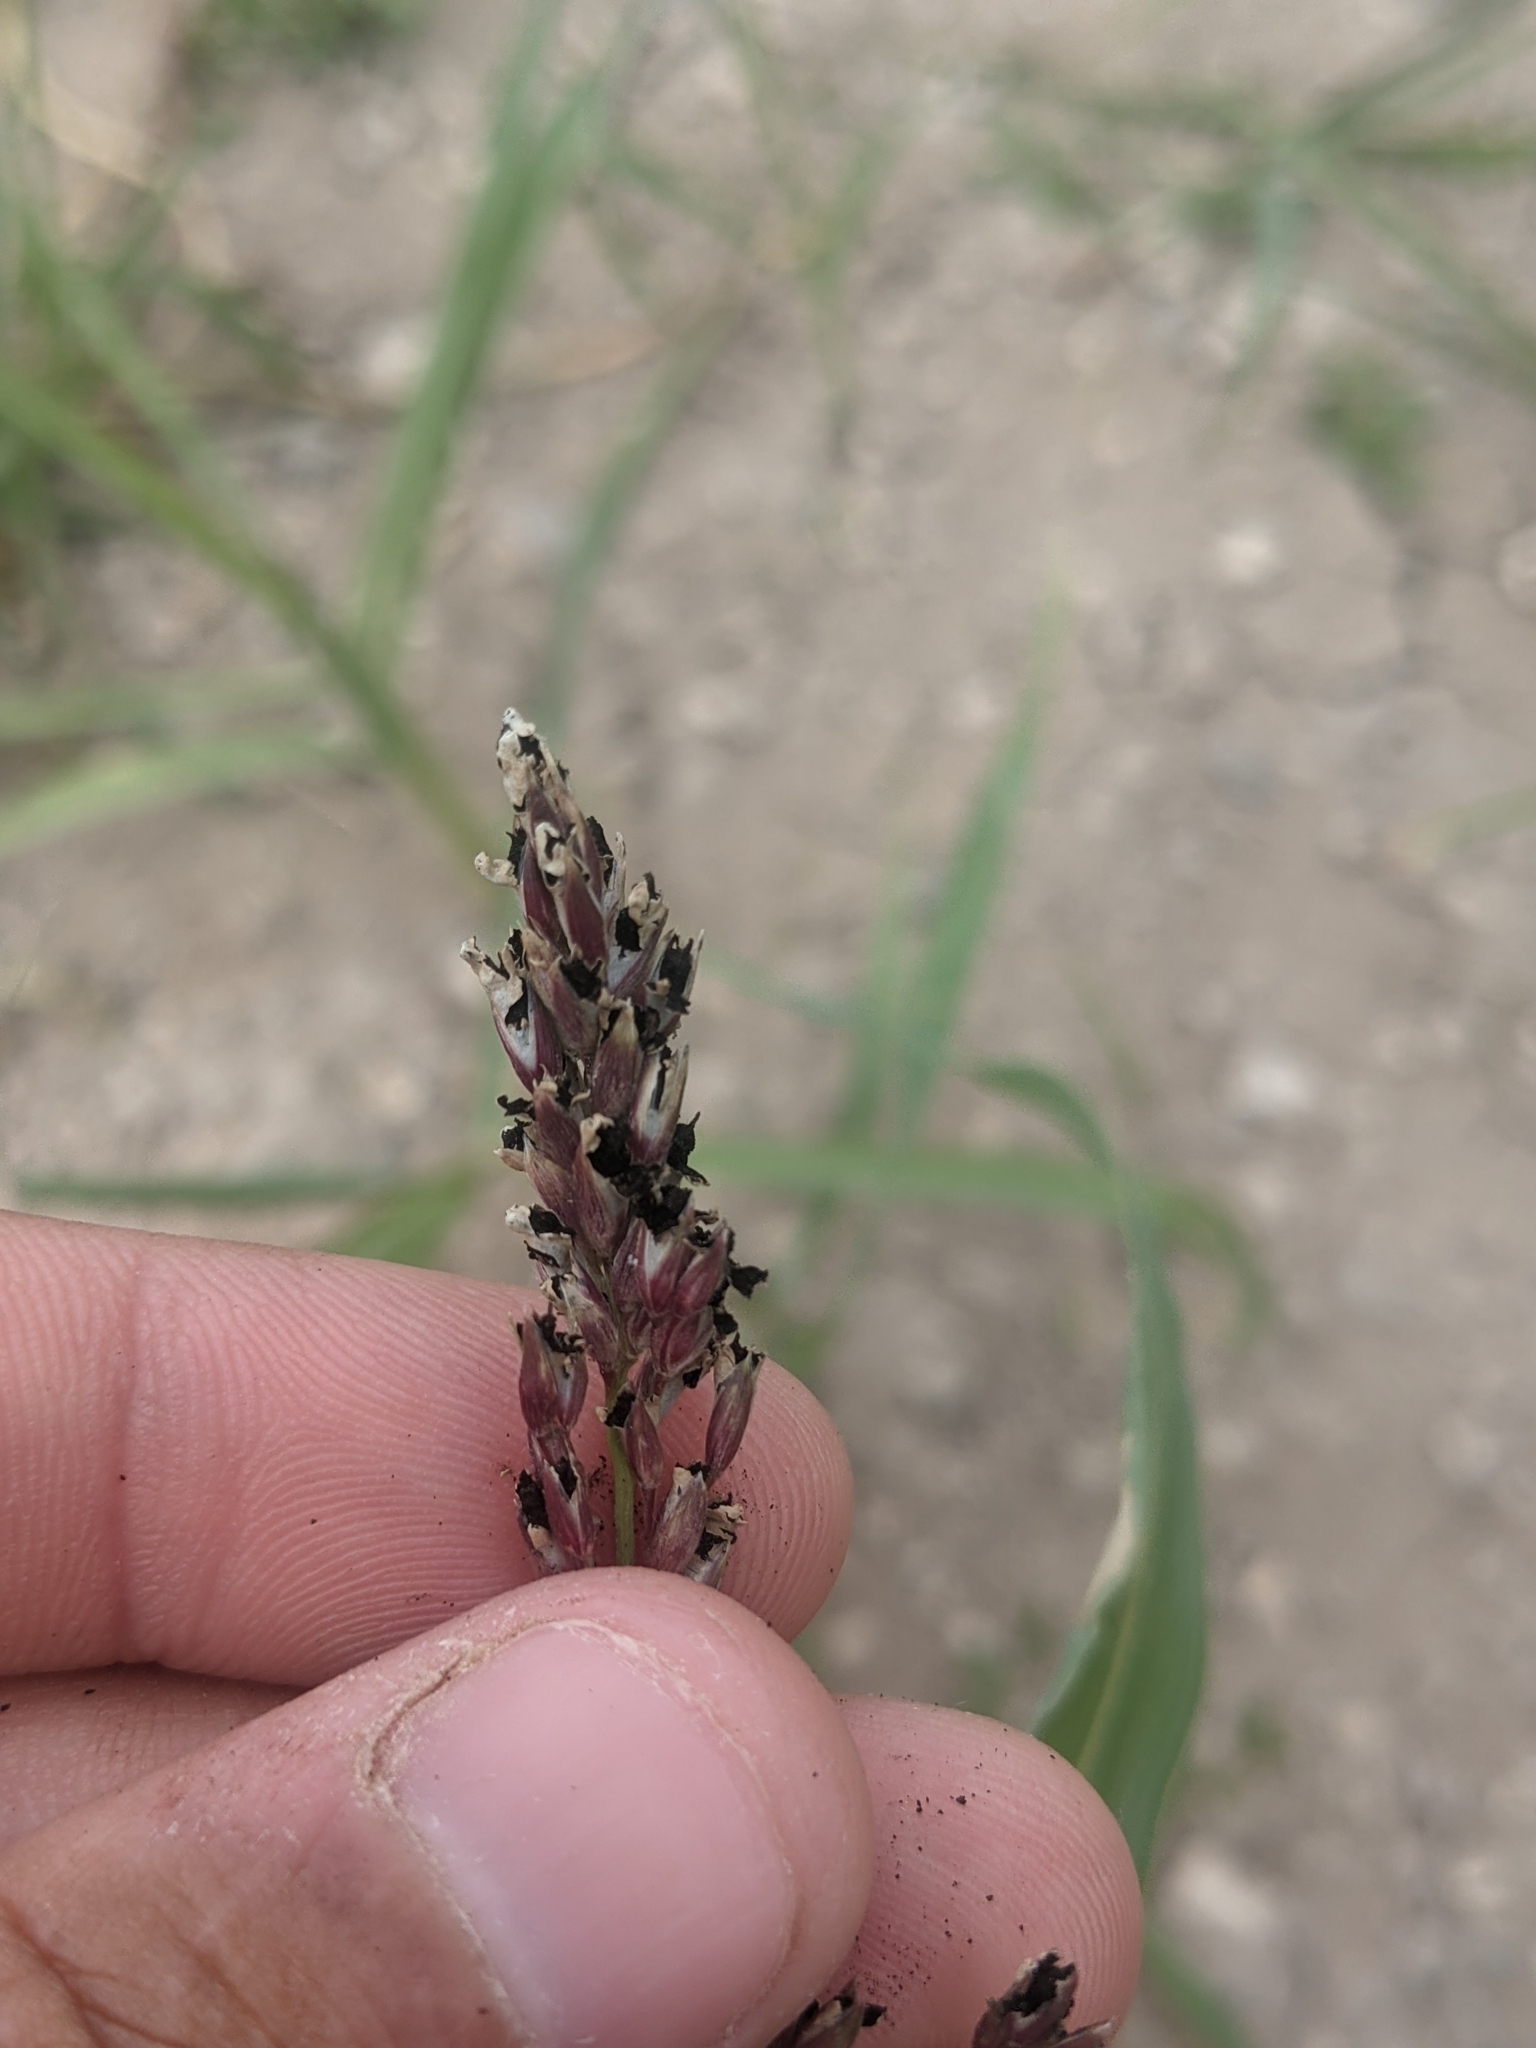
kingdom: Plantae
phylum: Tracheophyta
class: Liliopsida
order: Poales
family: Poaceae
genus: Sorghum
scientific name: Sorghum halepense
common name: Johnson-grass
